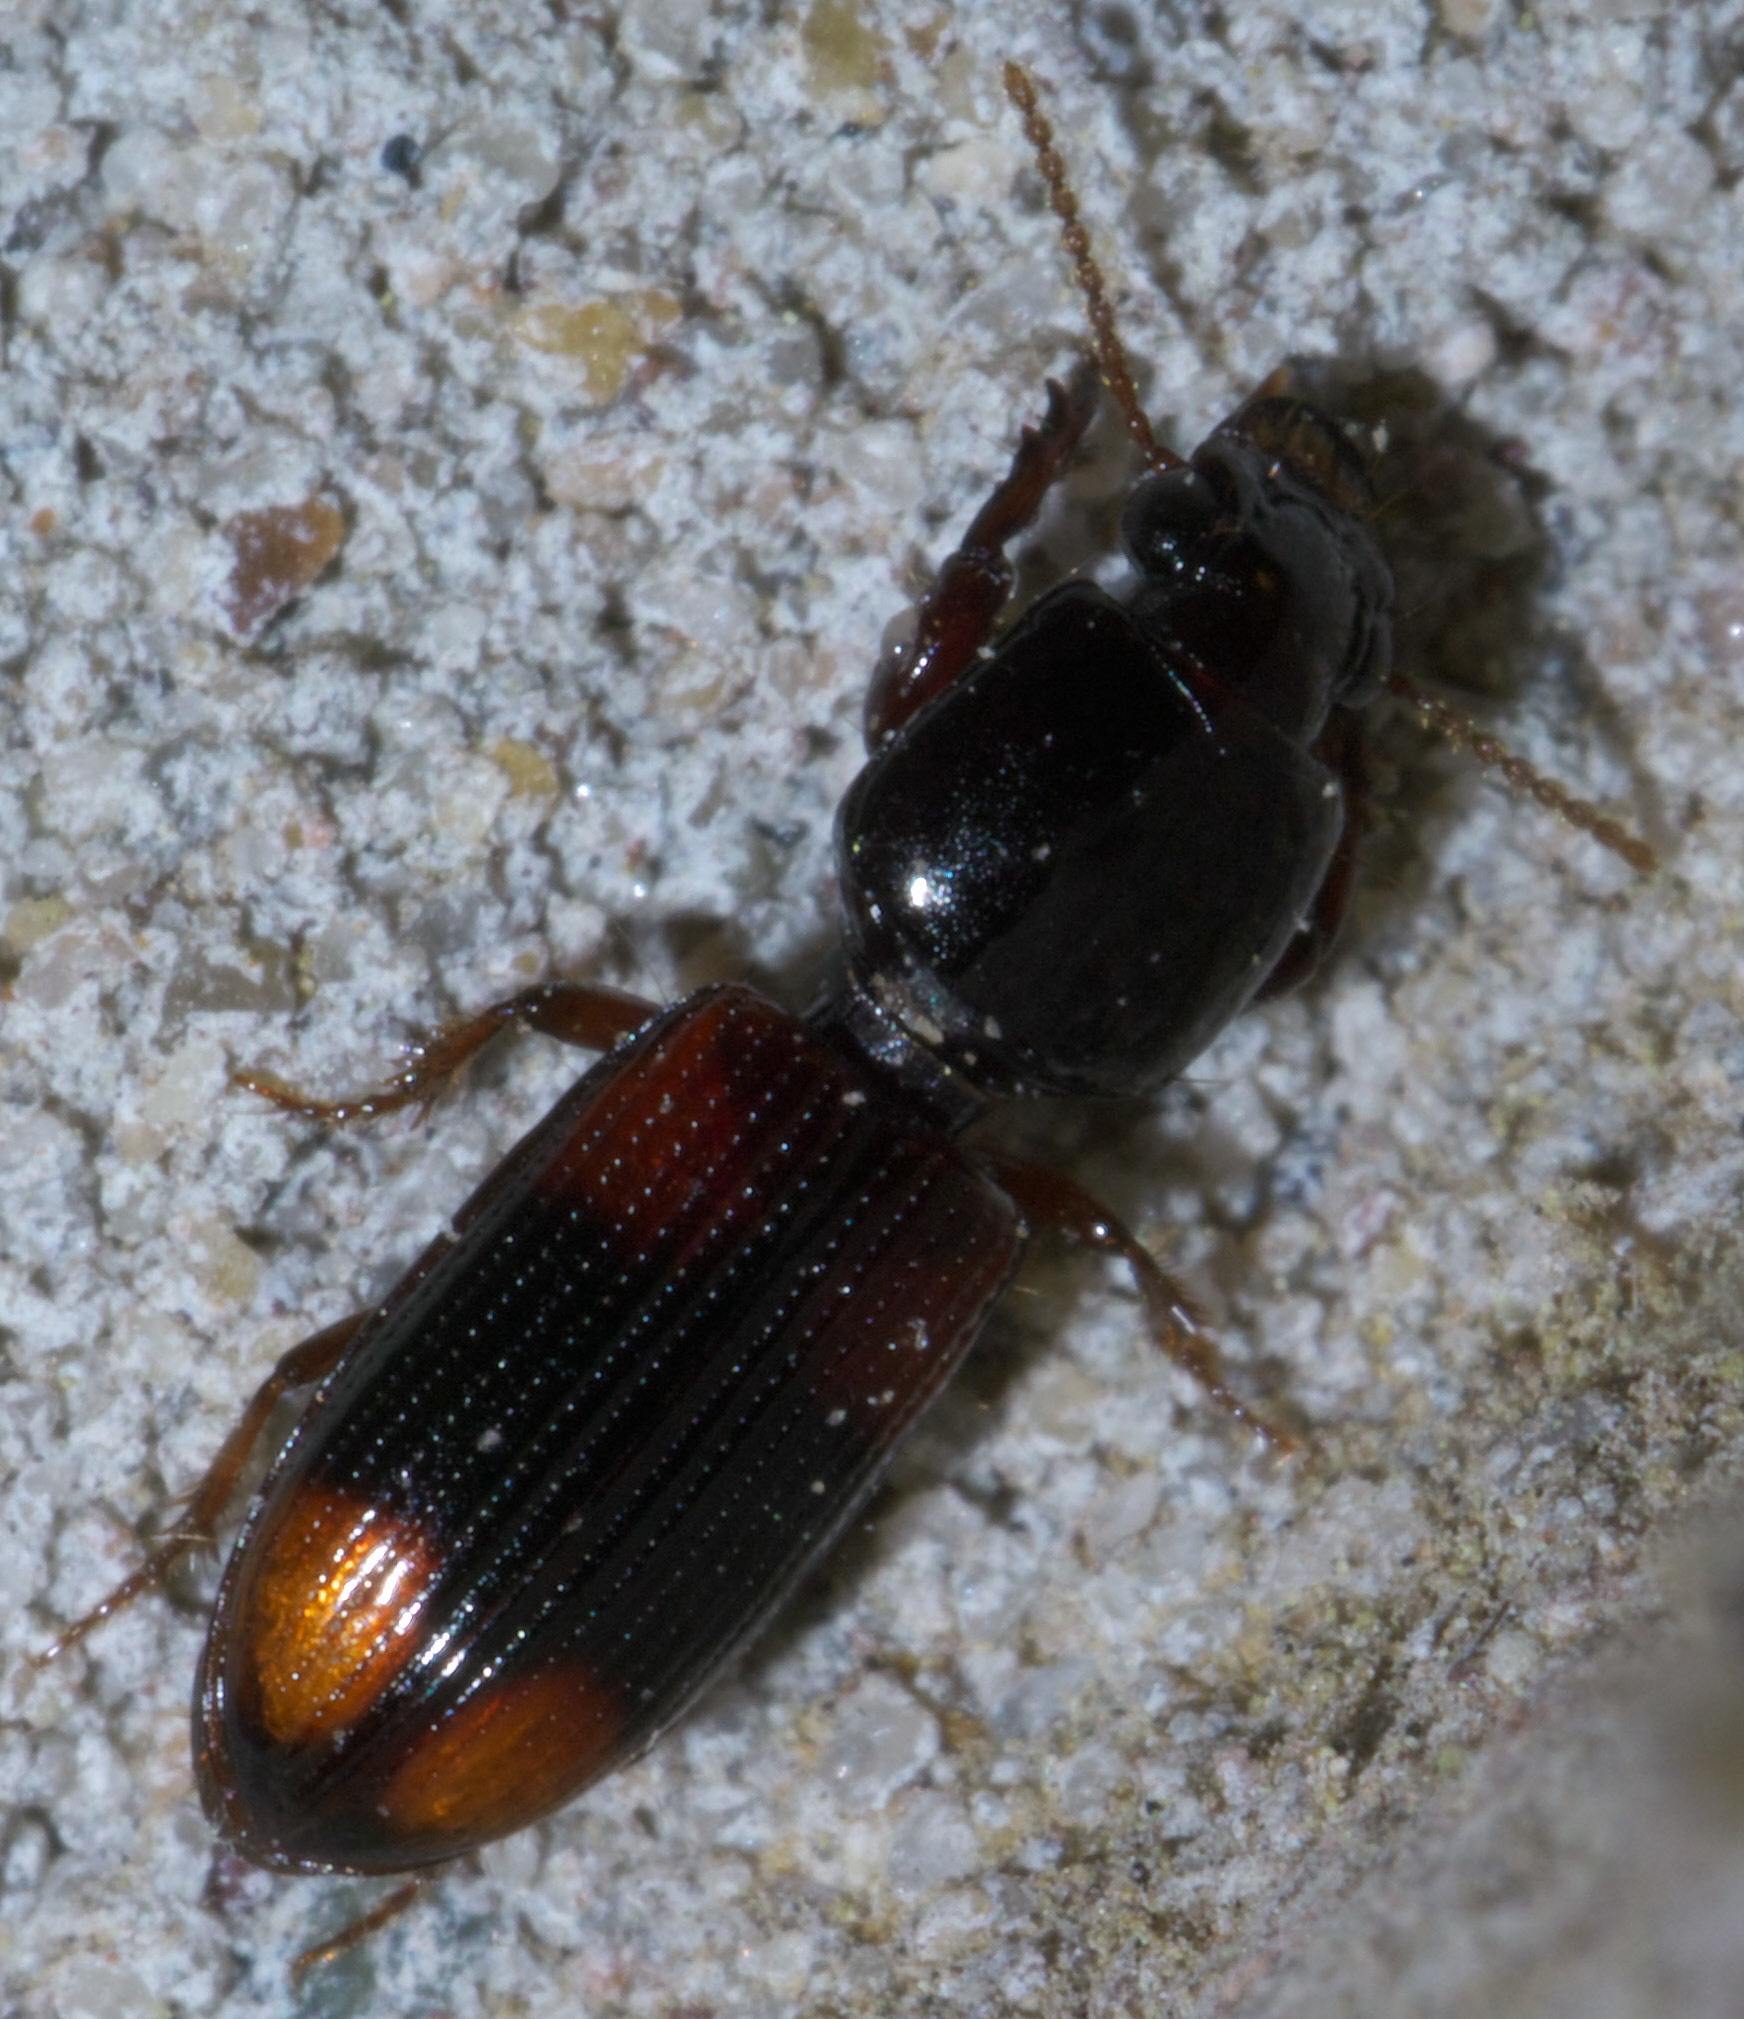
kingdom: Animalia
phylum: Arthropoda
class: Insecta
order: Coleoptera
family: Carabidae
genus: Clivina
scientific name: Clivina bipustulata
